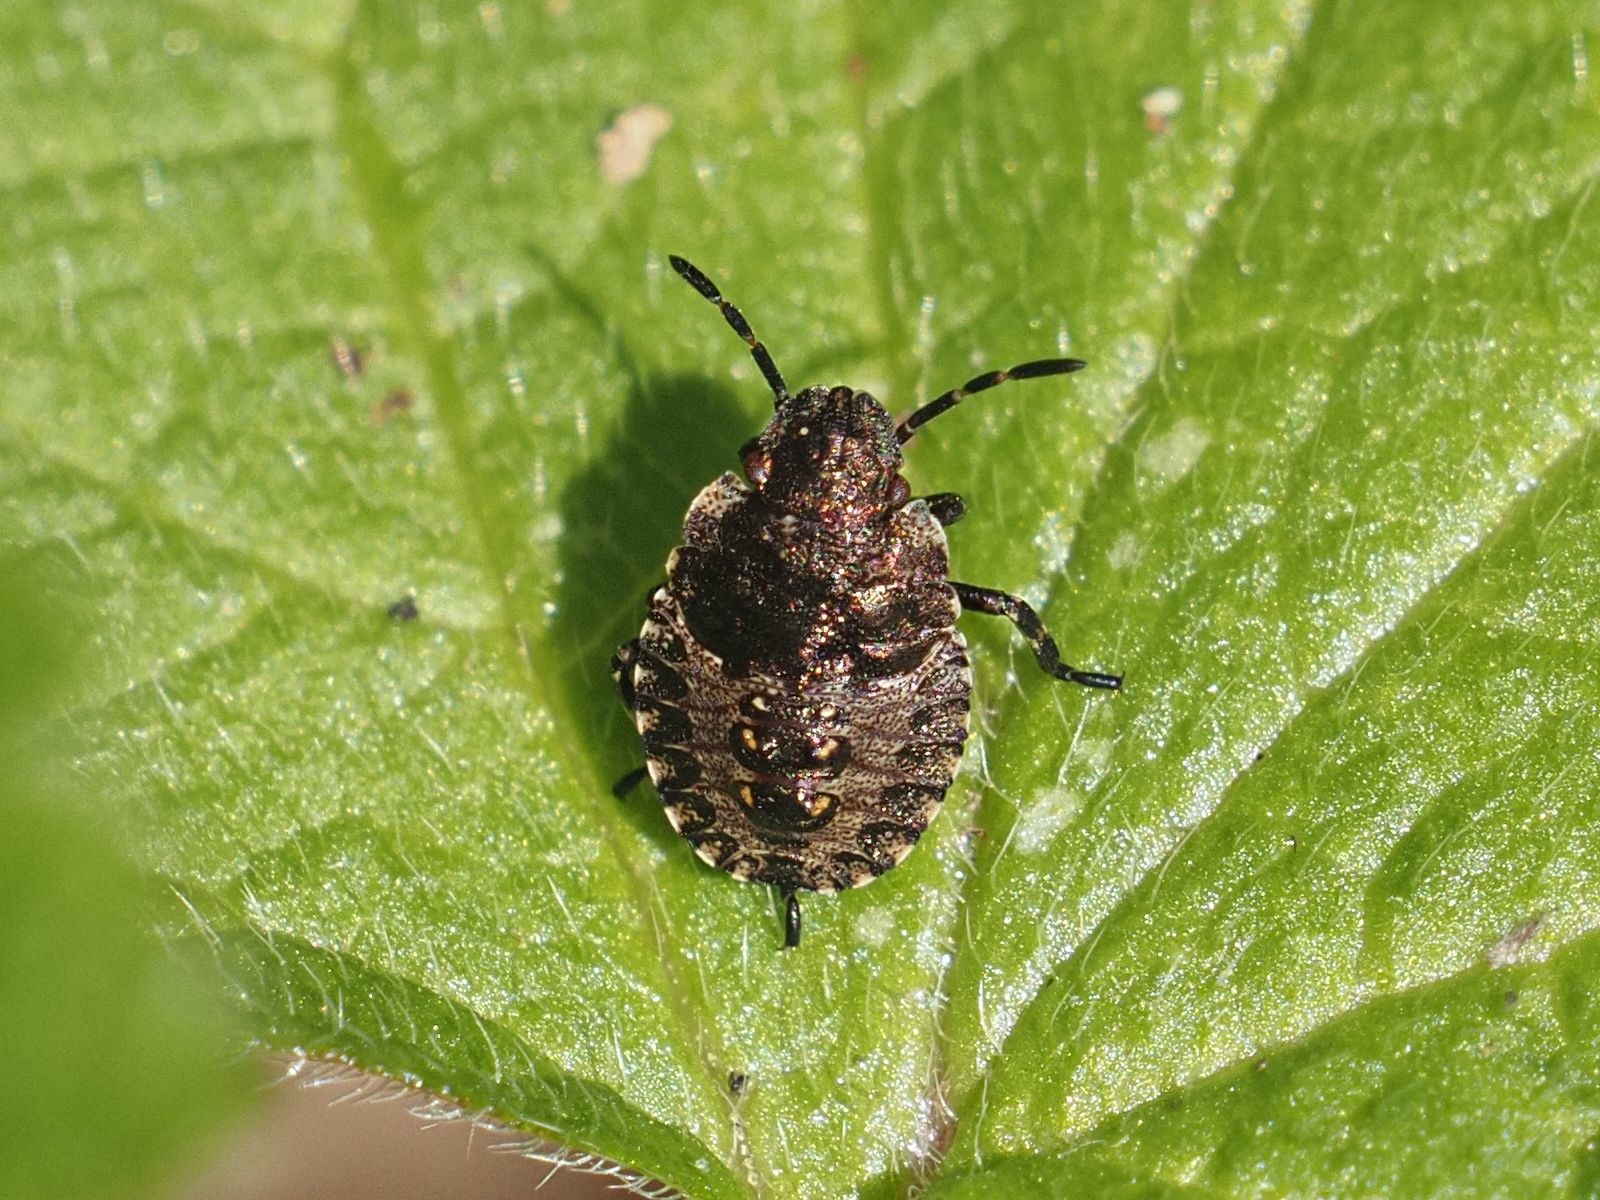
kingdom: Animalia
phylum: Arthropoda
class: Insecta
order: Hemiptera
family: Pentatomidae
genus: Pentatoma
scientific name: Pentatoma rufipes
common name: Forest bug
